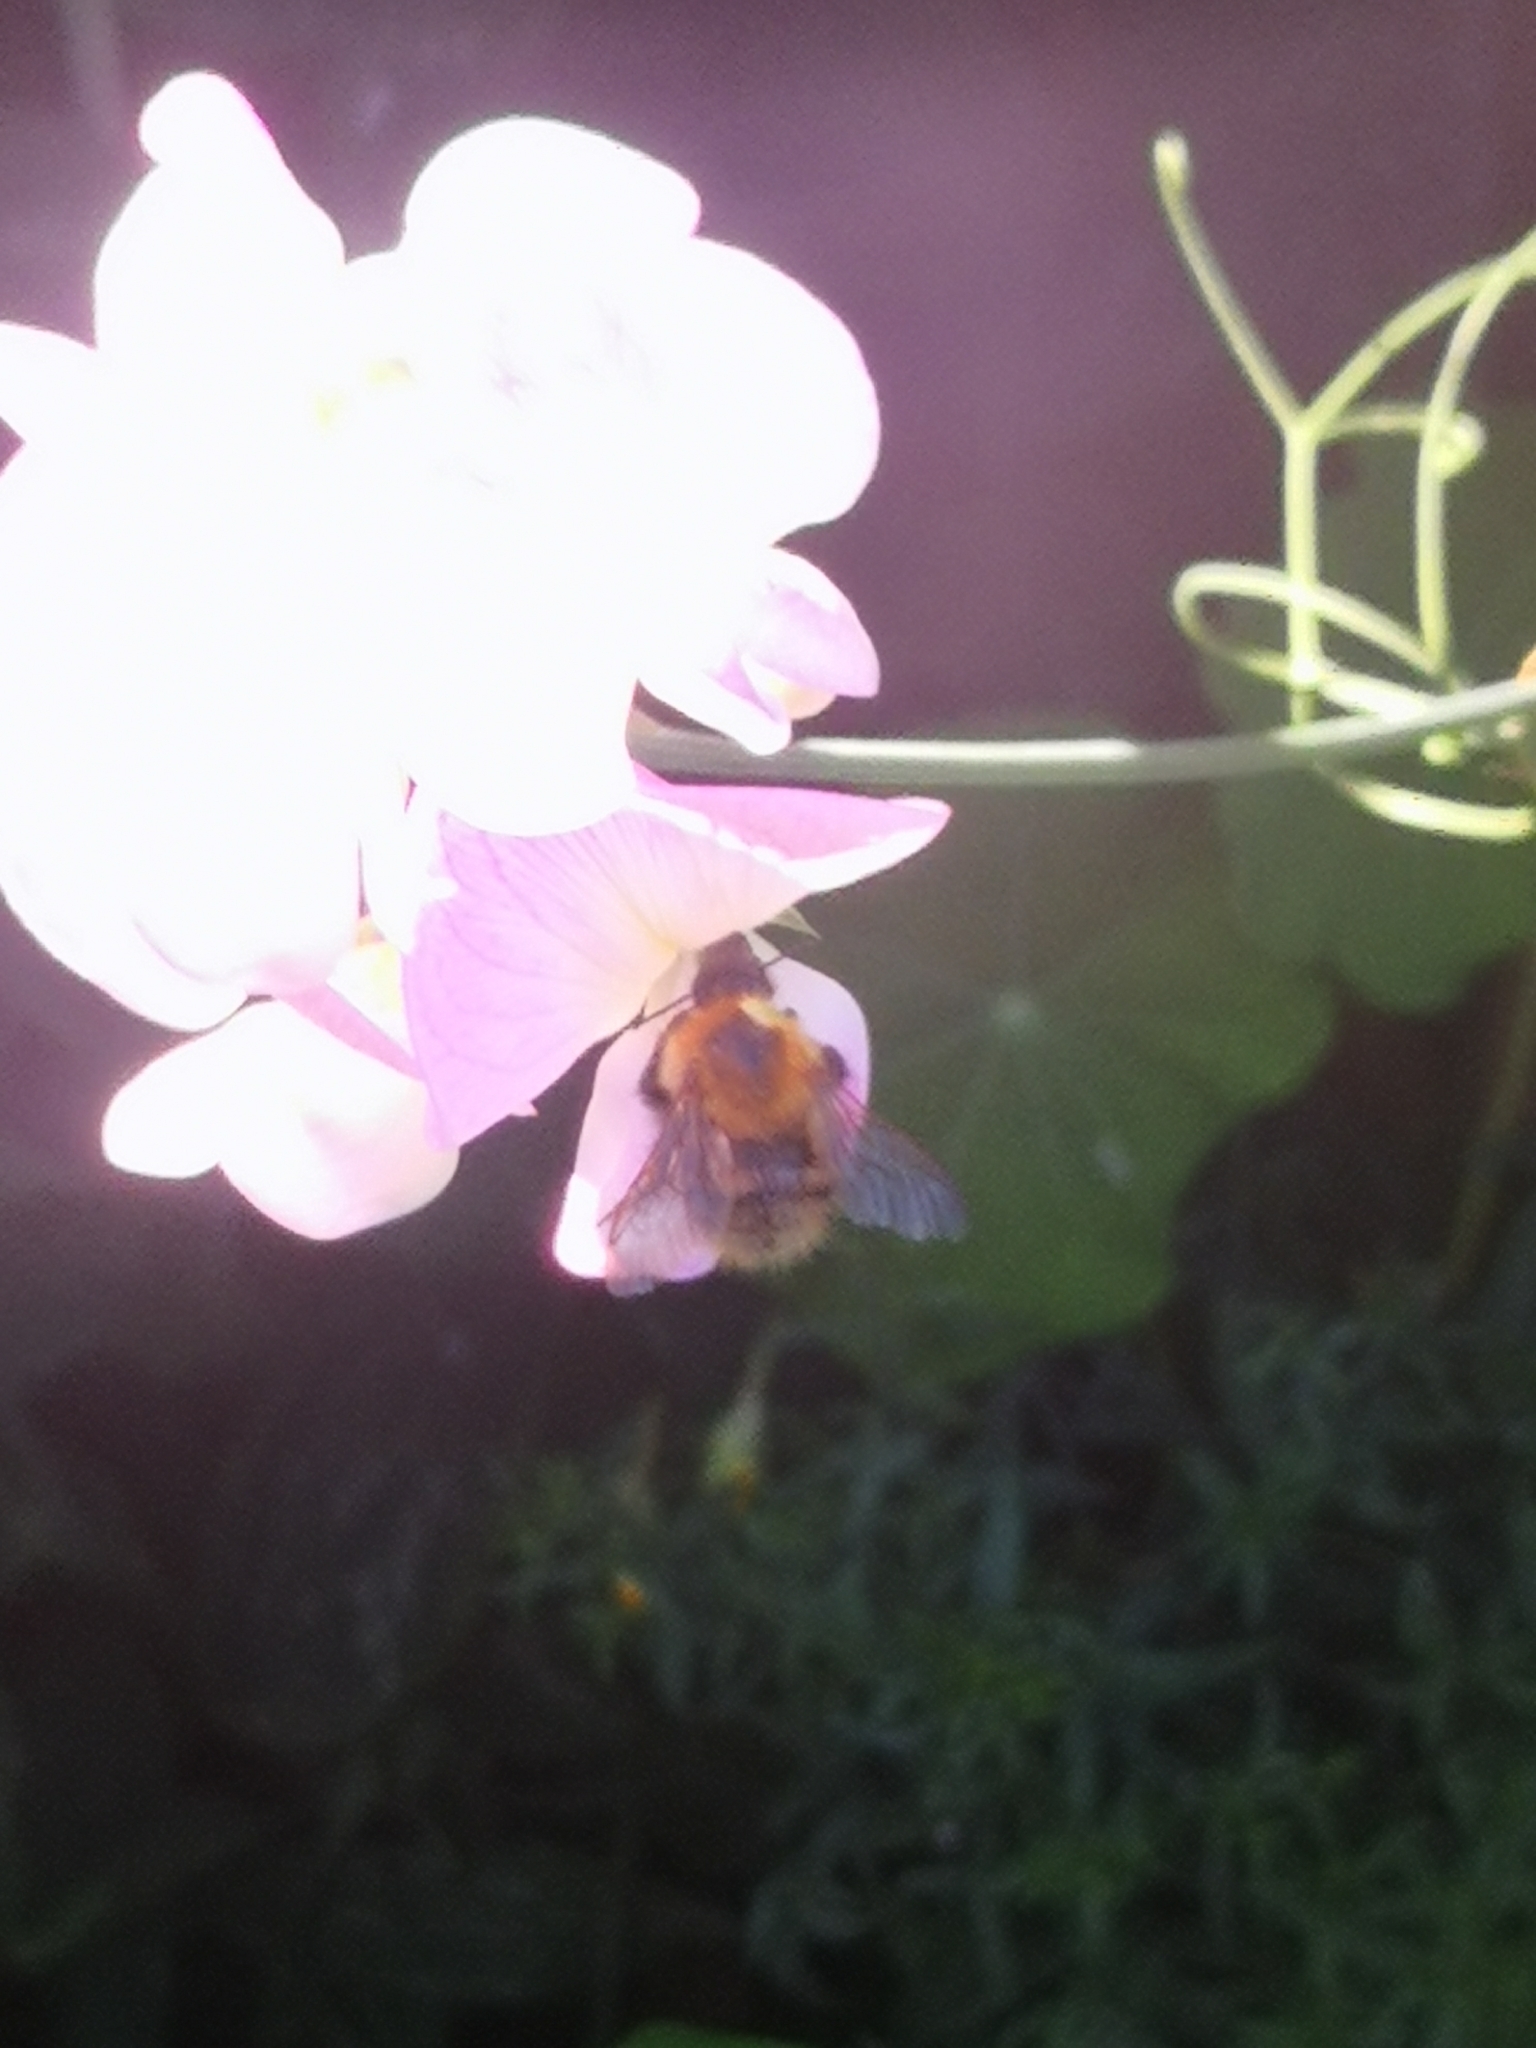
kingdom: Animalia
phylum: Arthropoda
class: Insecta
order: Hymenoptera
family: Apidae
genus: Bombus
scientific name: Bombus pascuorum
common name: Common carder bee
